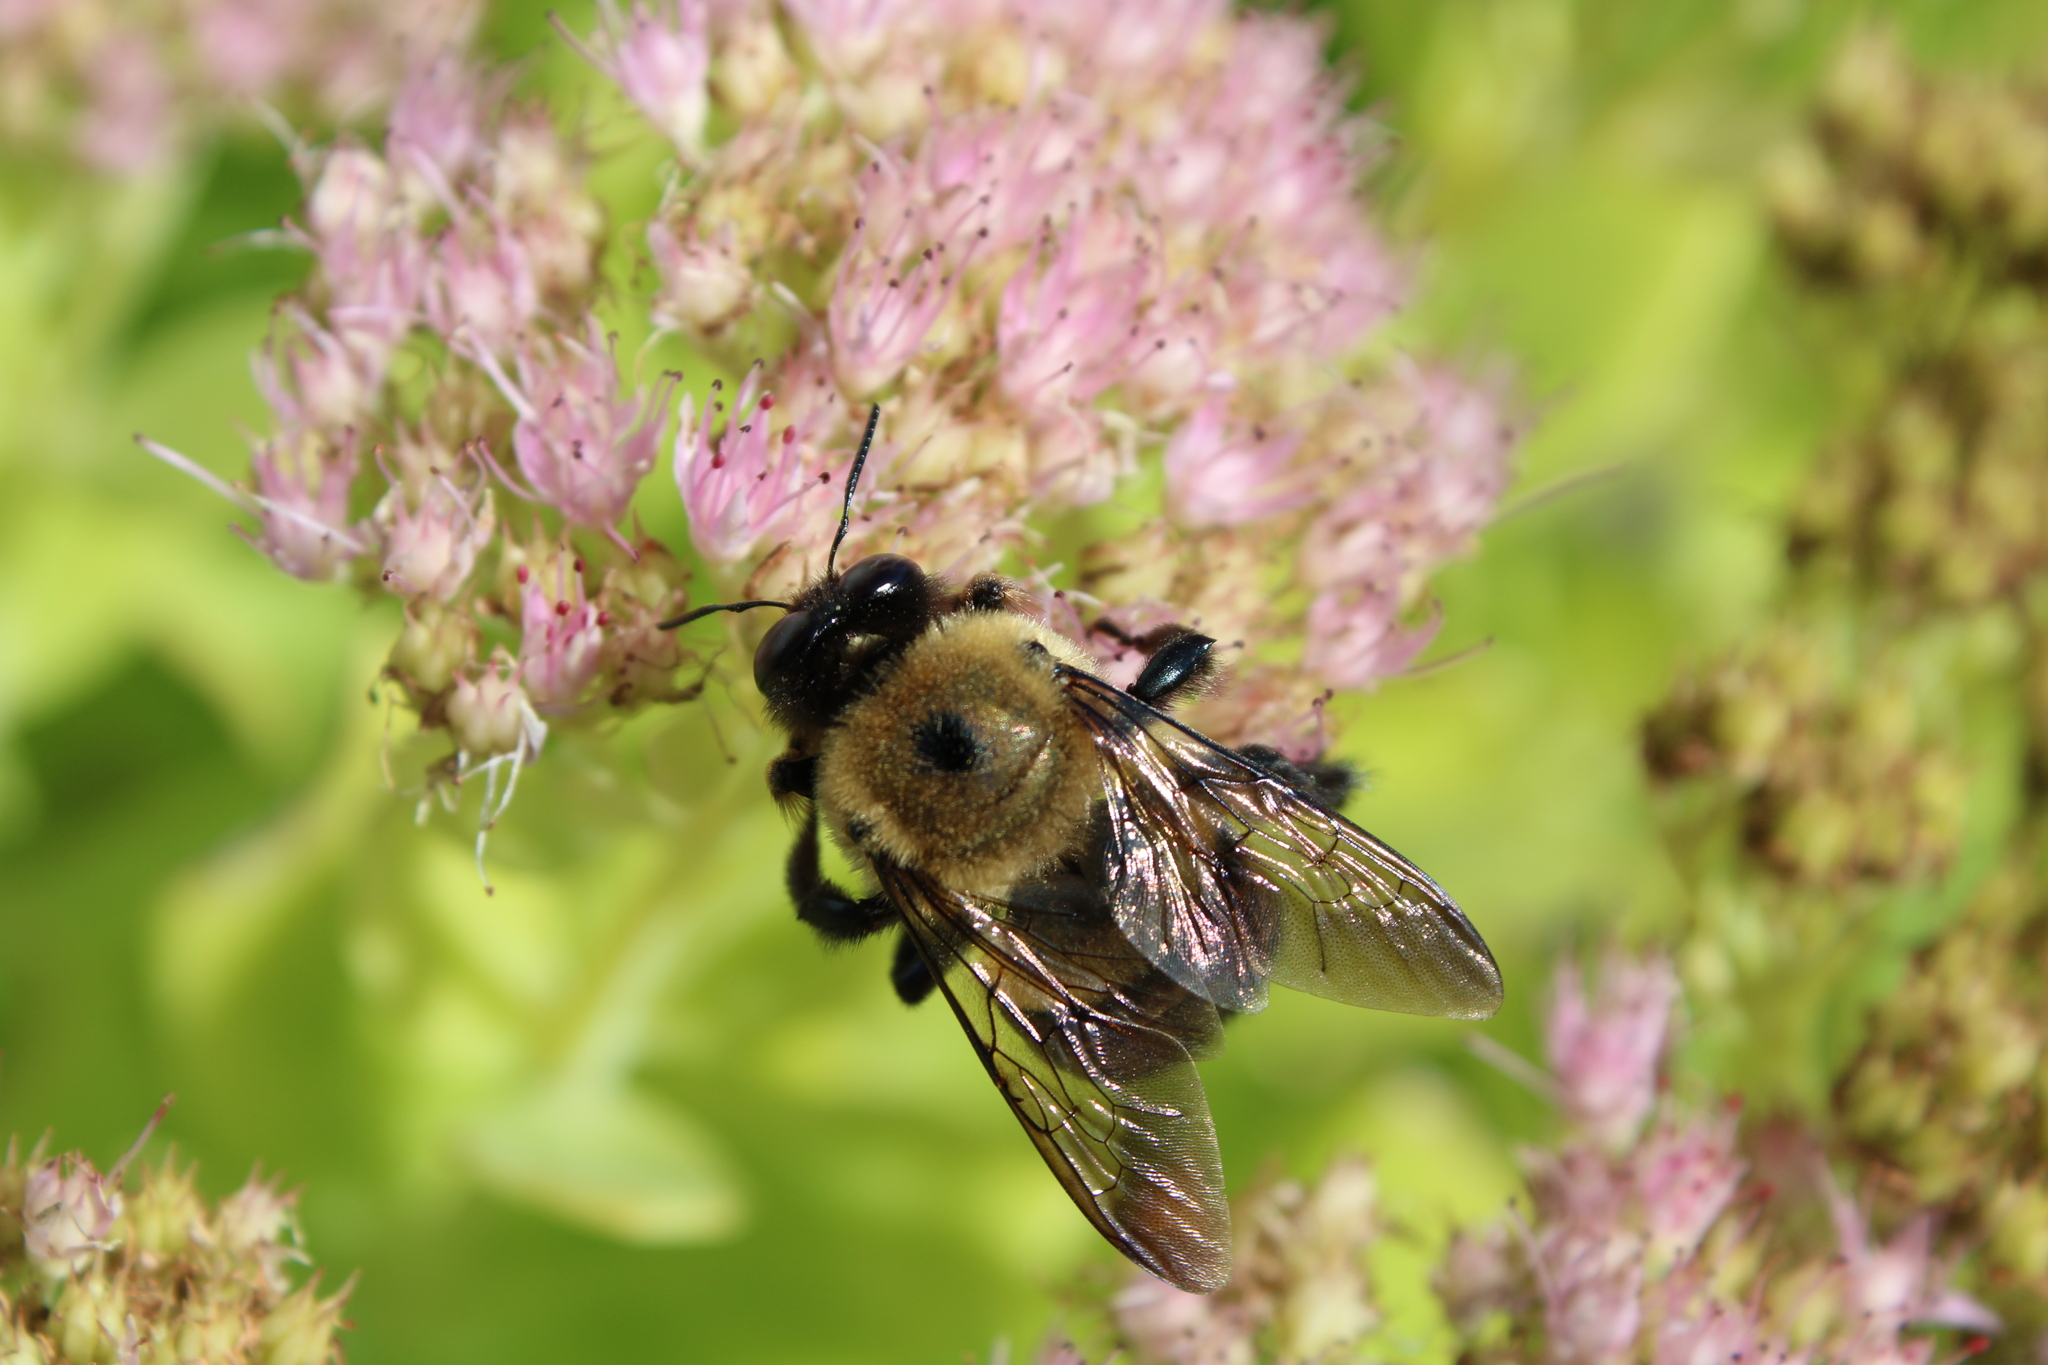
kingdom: Animalia
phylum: Arthropoda
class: Insecta
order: Hymenoptera
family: Apidae
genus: Xylocopa
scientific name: Xylocopa virginica
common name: Carpenter bee
